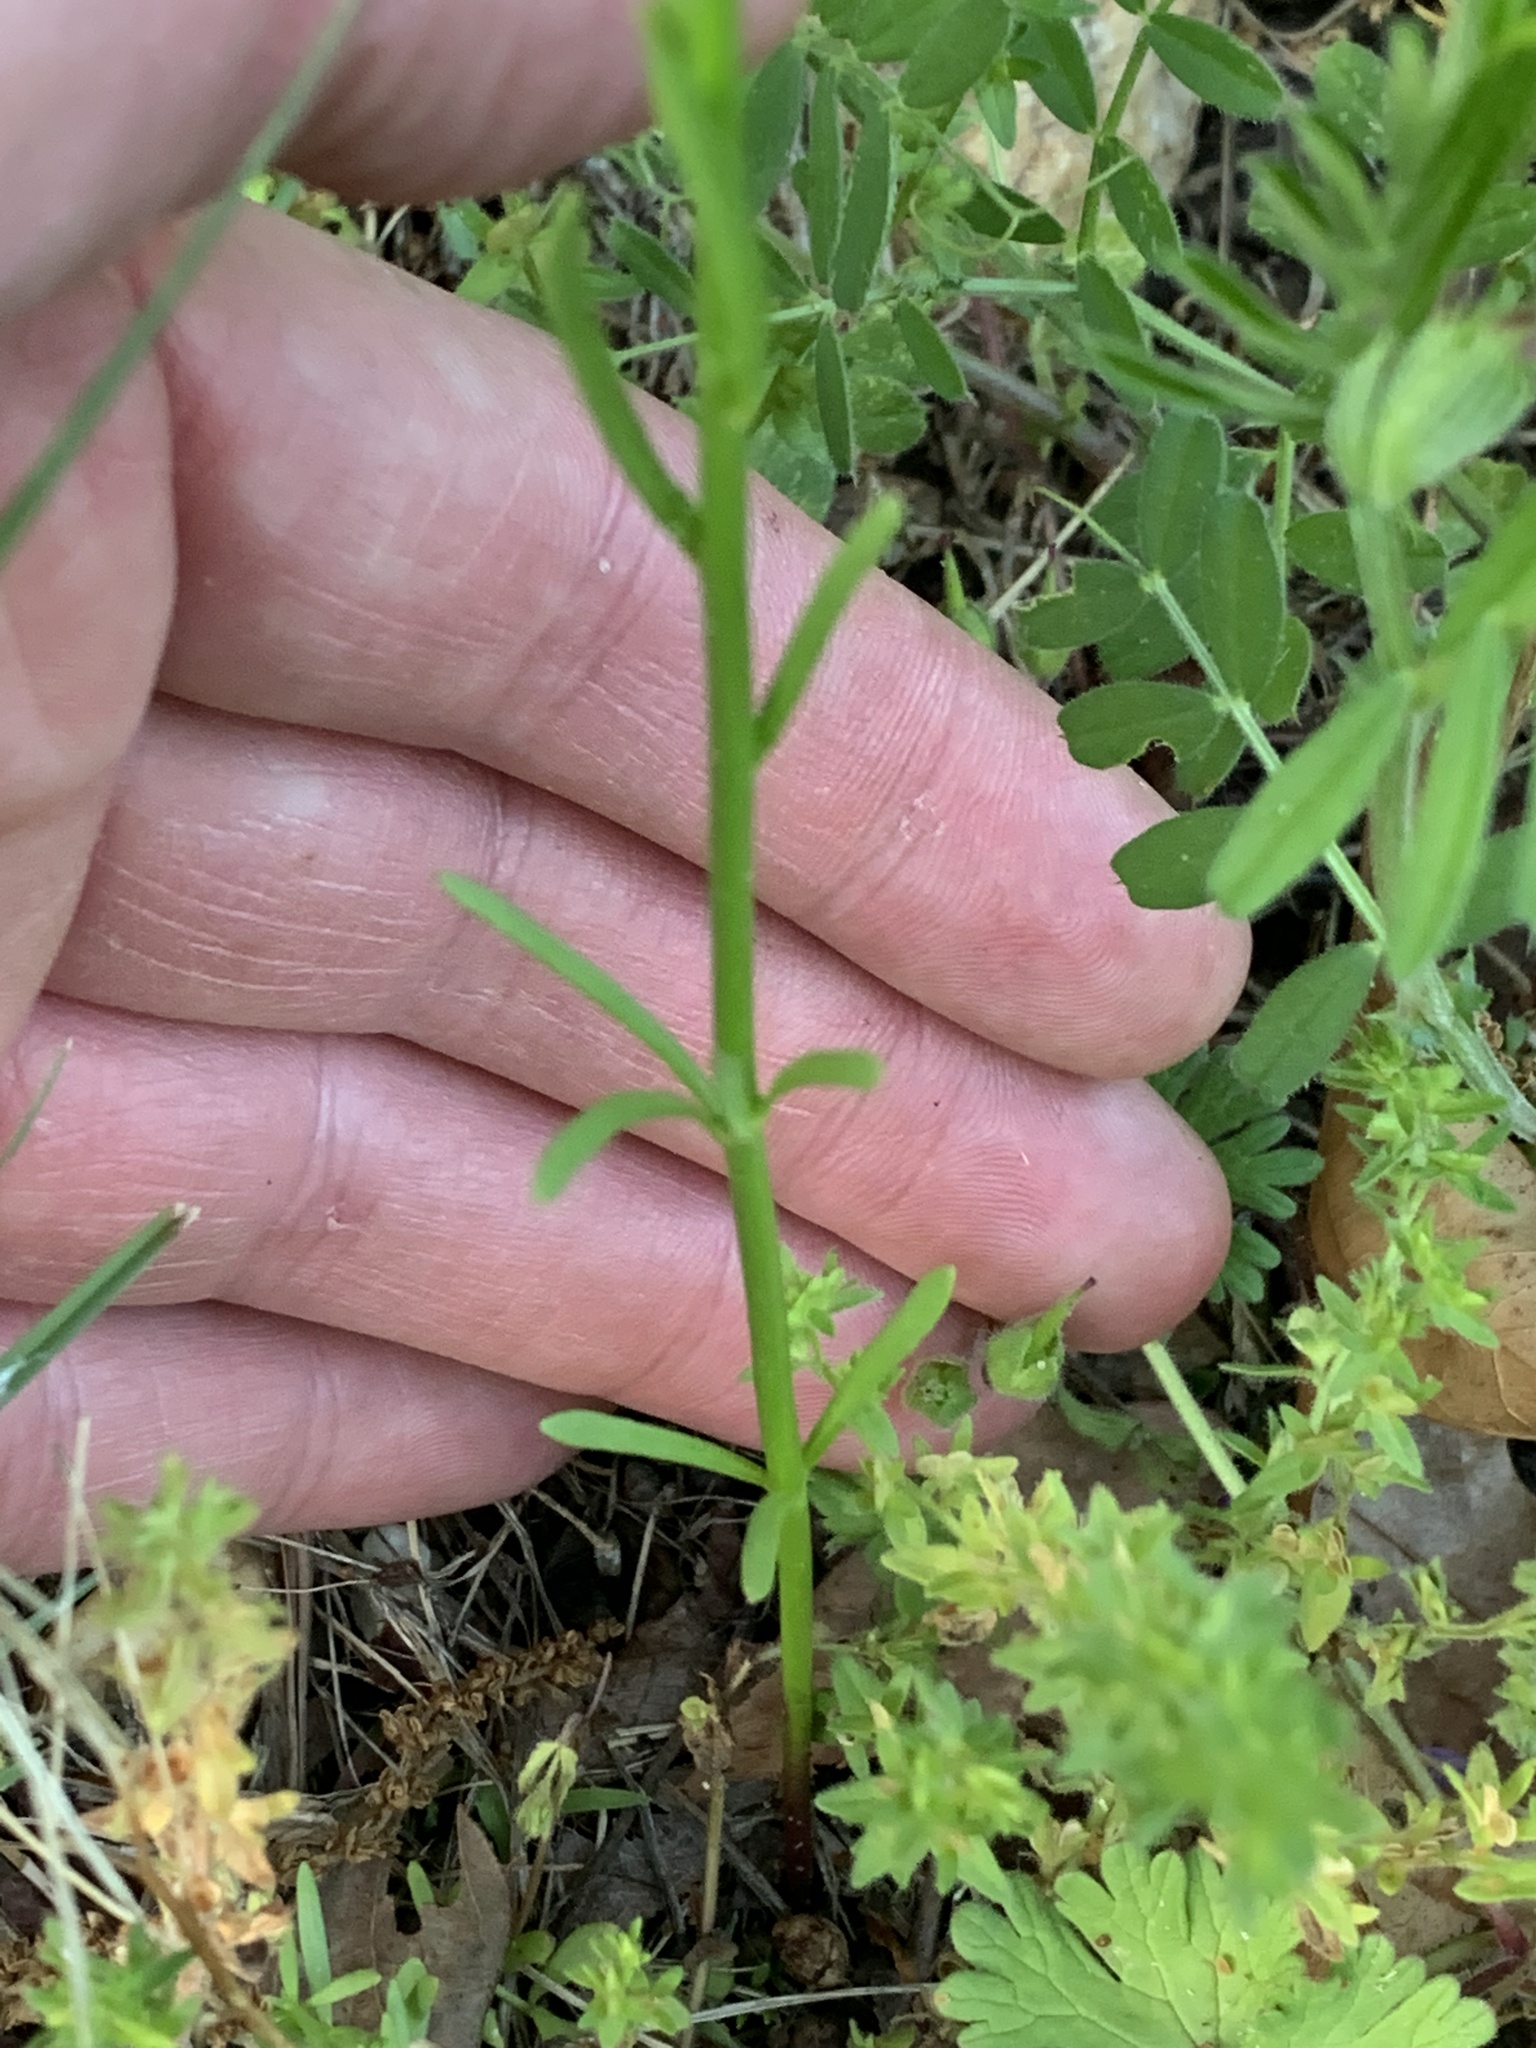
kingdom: Plantae
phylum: Tracheophyta
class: Magnoliopsida
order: Lamiales
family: Plantaginaceae
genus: Nuttallanthus
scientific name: Nuttallanthus canadensis
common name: Blue toadflax
